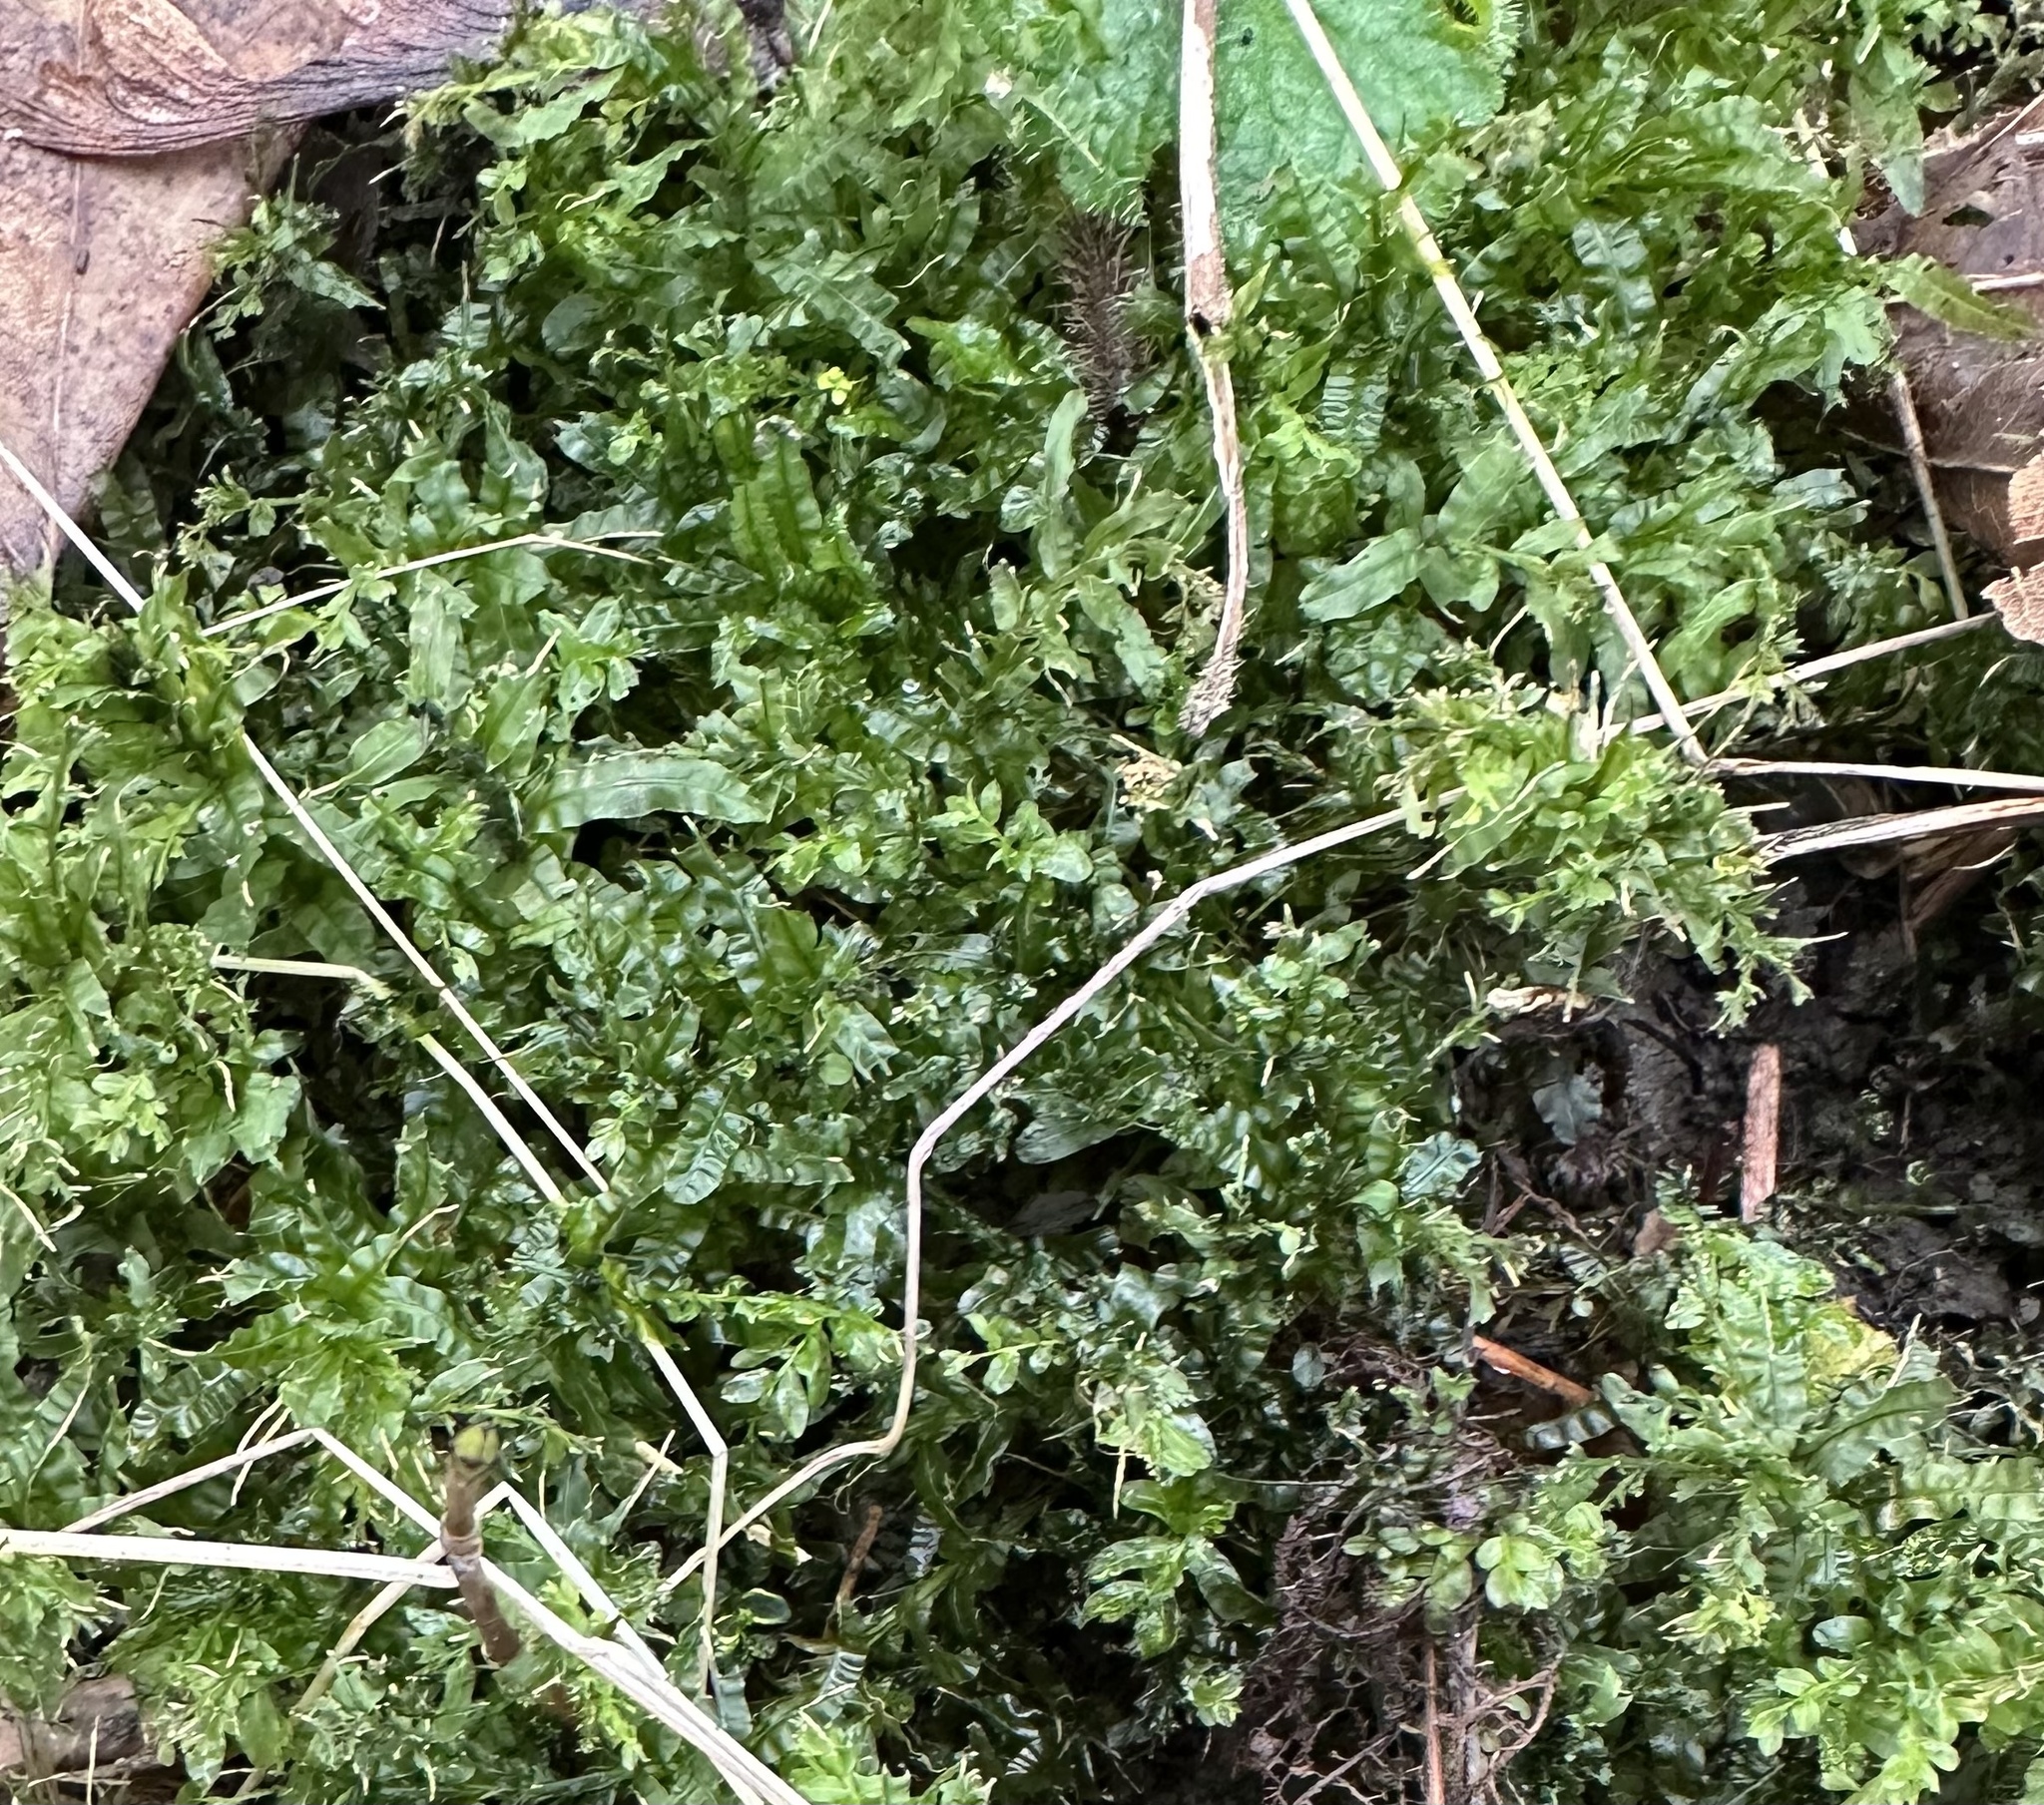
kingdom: Plantae
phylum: Bryophyta
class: Bryopsida
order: Bryales
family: Mniaceae
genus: Plagiomnium
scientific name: Plagiomnium undulatum
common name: Hart's-tongue thyme-moss
